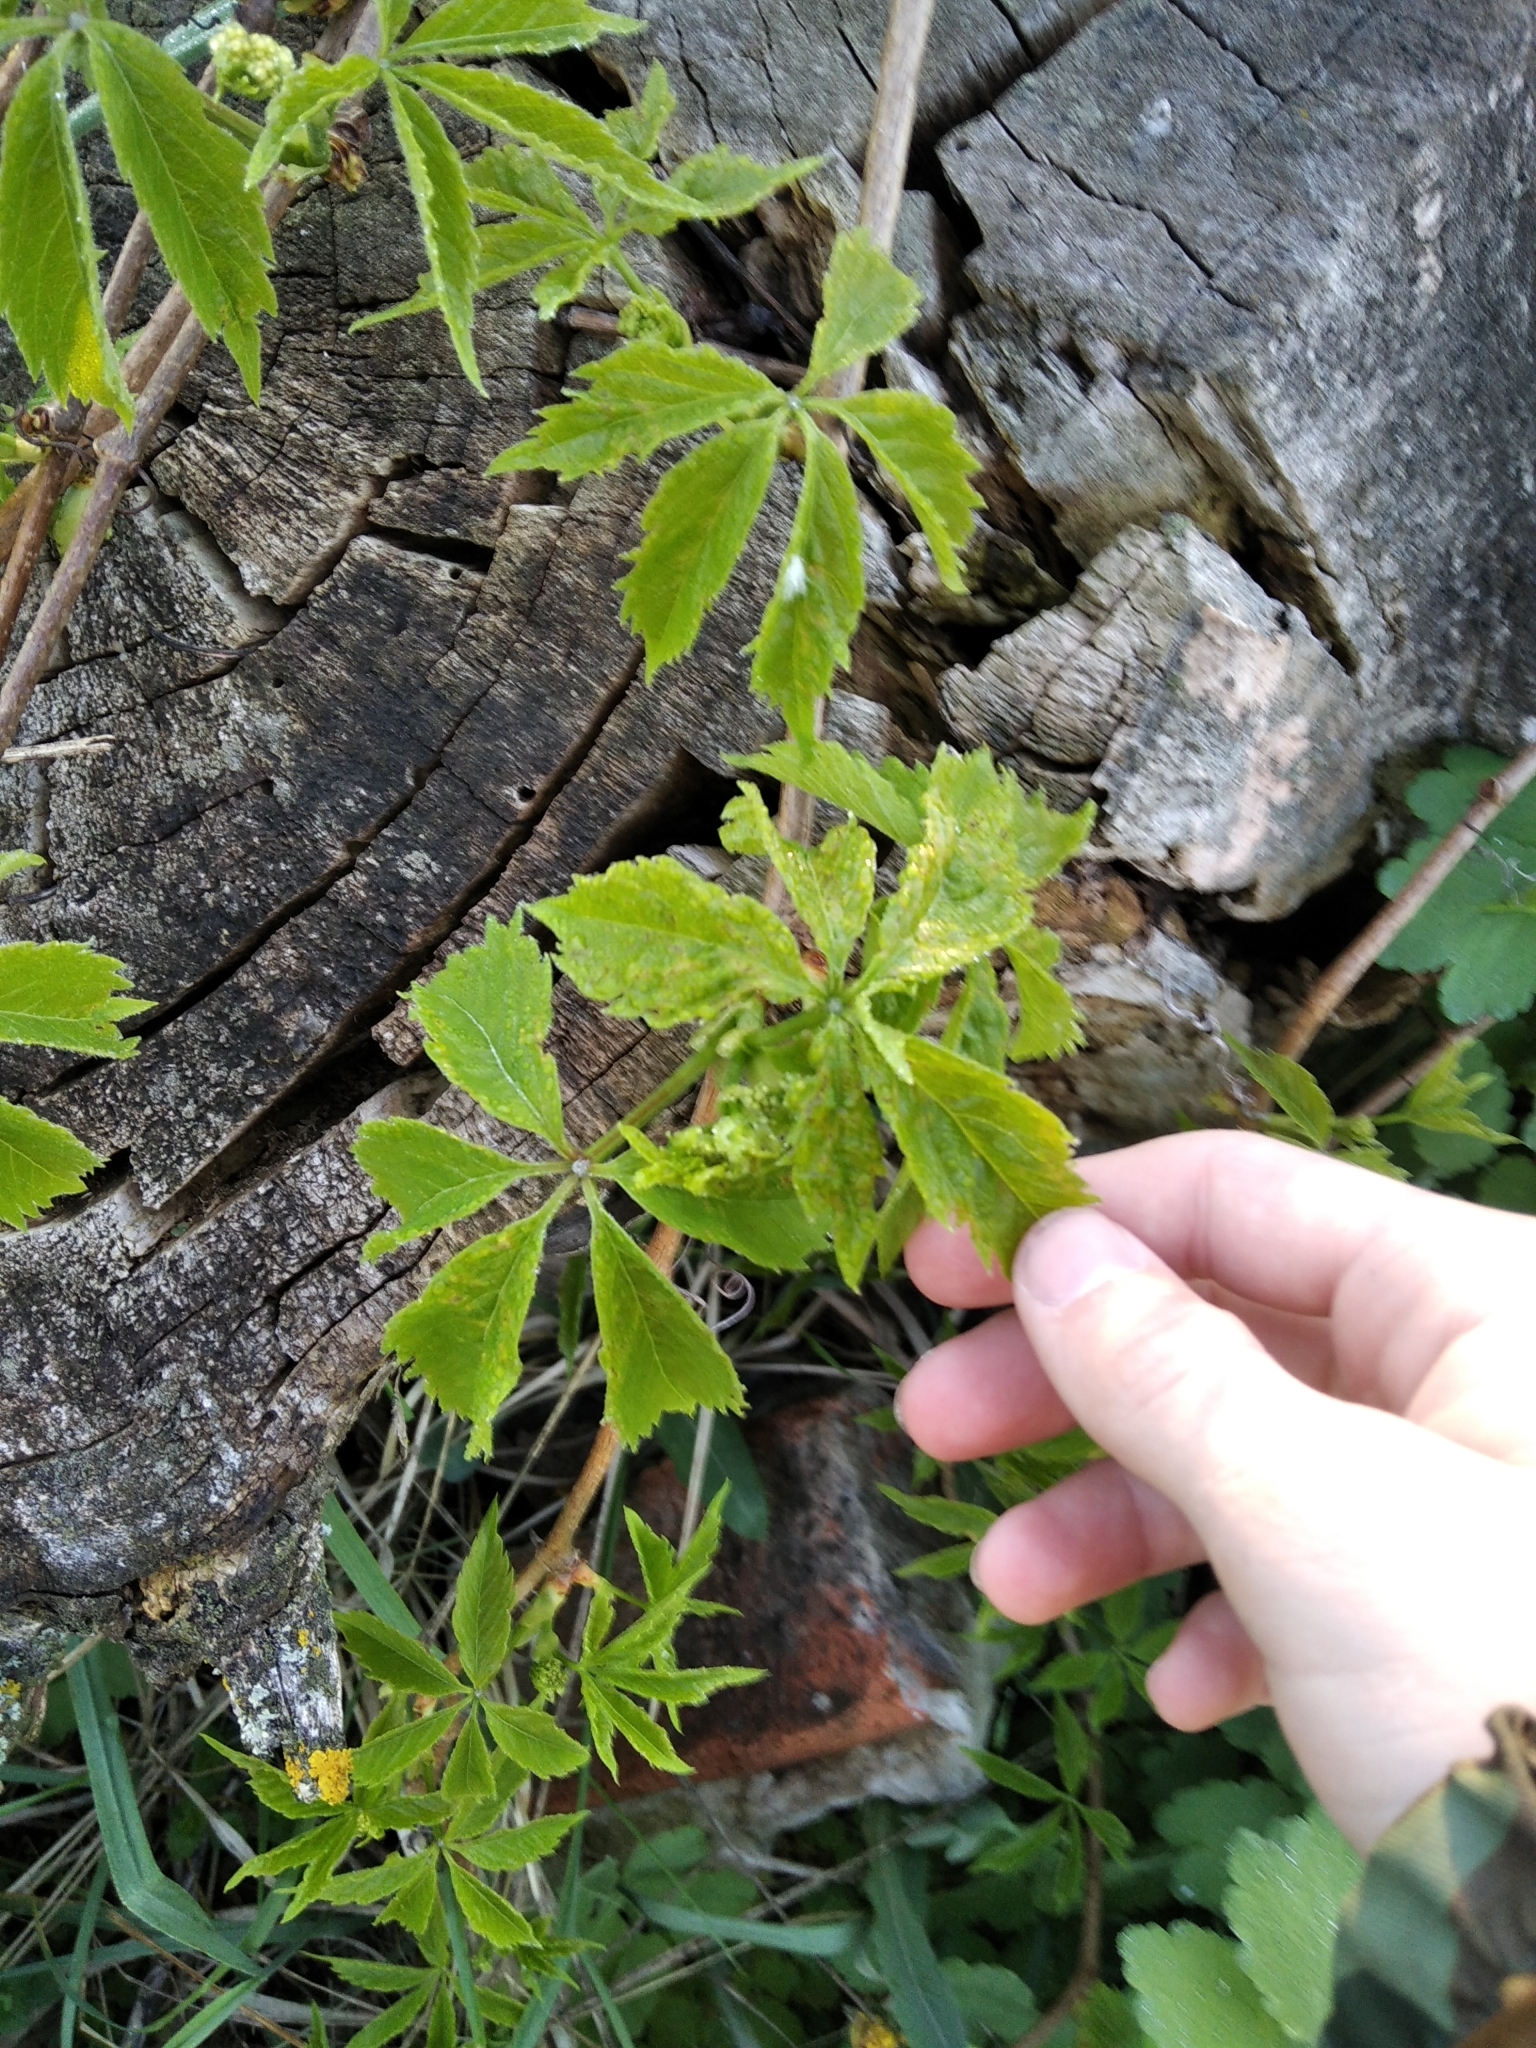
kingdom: Plantae
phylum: Tracheophyta
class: Magnoliopsida
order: Vitales
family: Vitaceae
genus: Parthenocissus
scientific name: Parthenocissus inserta
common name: False virginia-creeper
